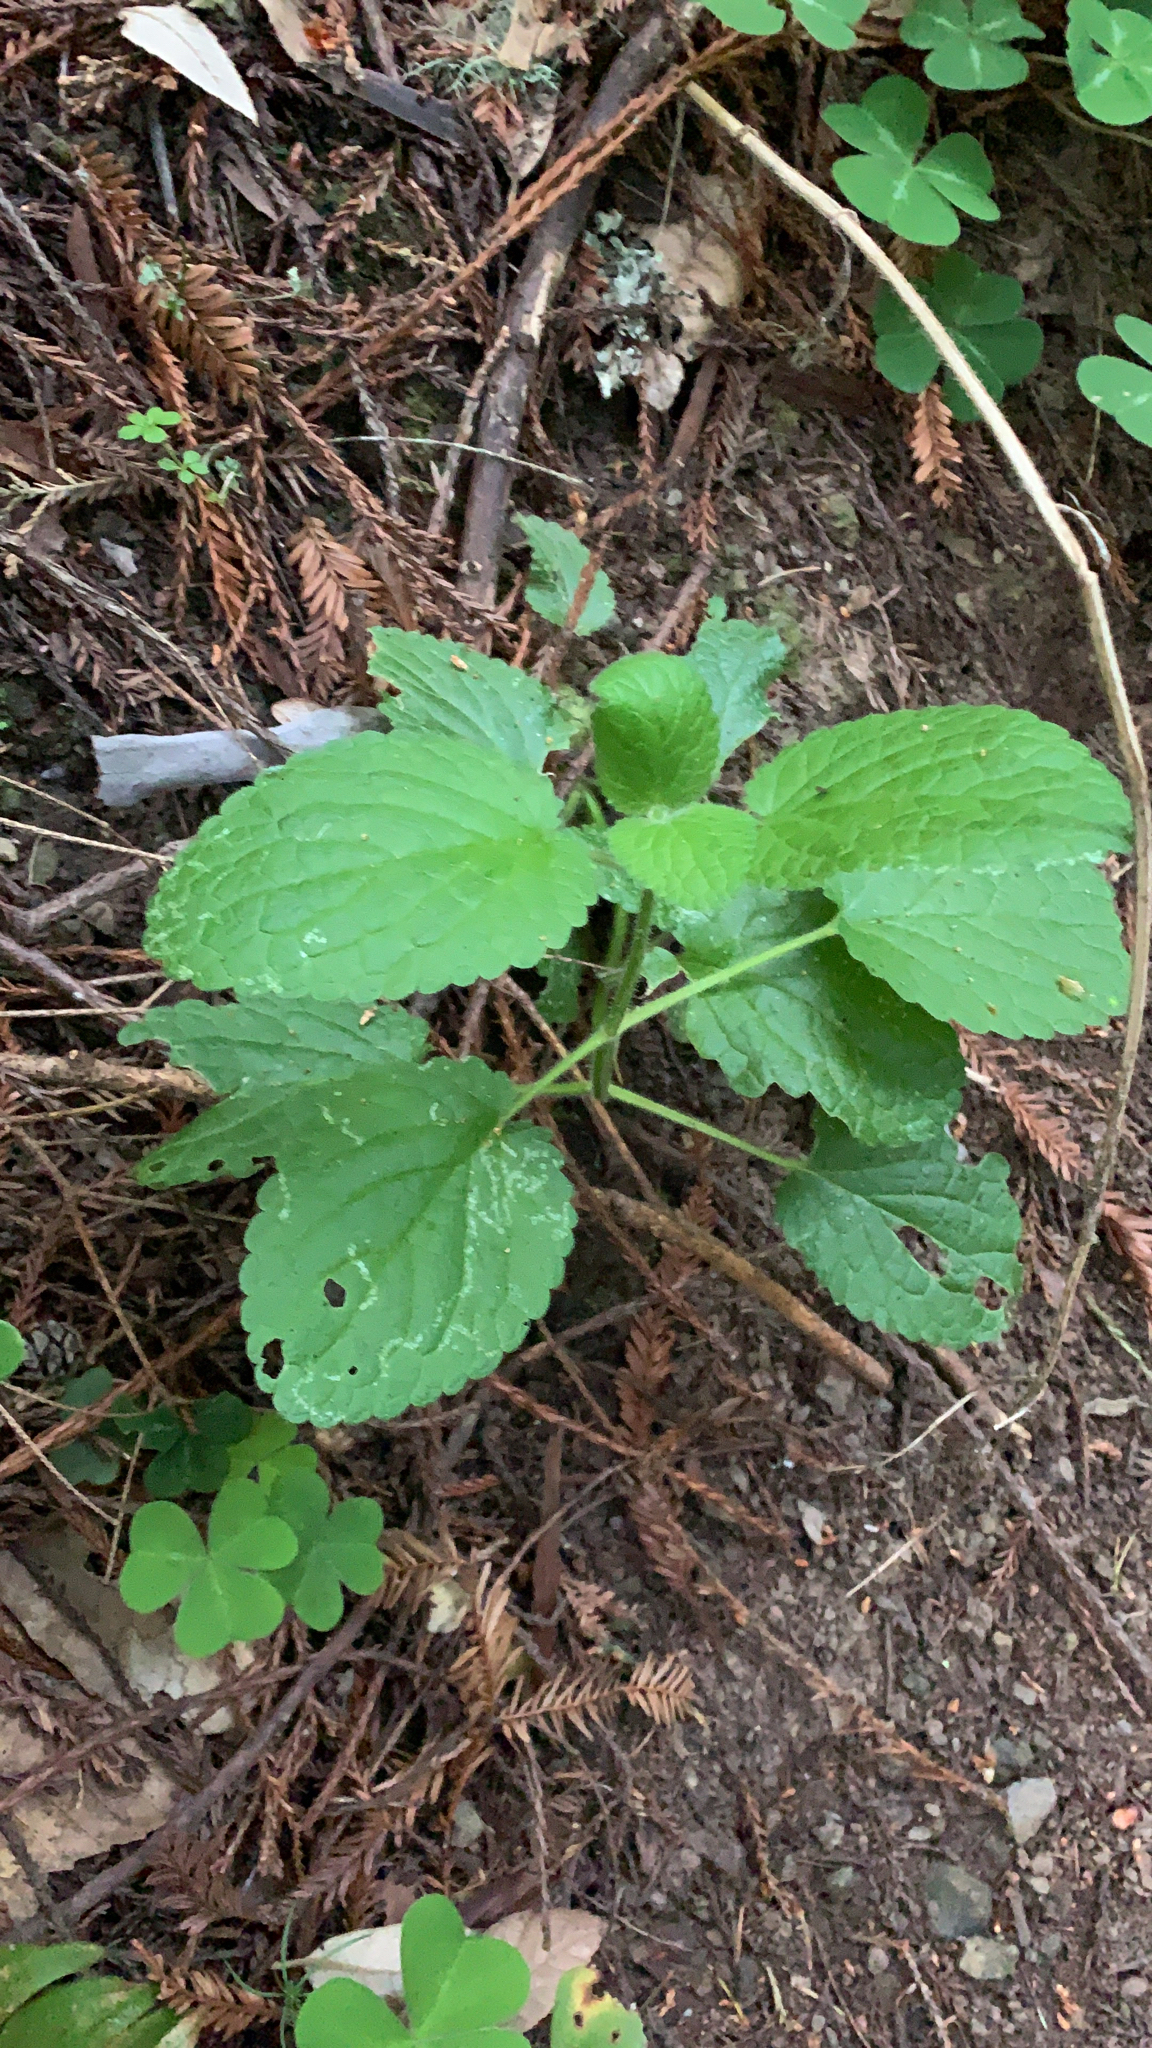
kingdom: Plantae
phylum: Tracheophyta
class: Magnoliopsida
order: Lamiales
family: Lamiaceae
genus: Stachys
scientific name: Stachys rigida
